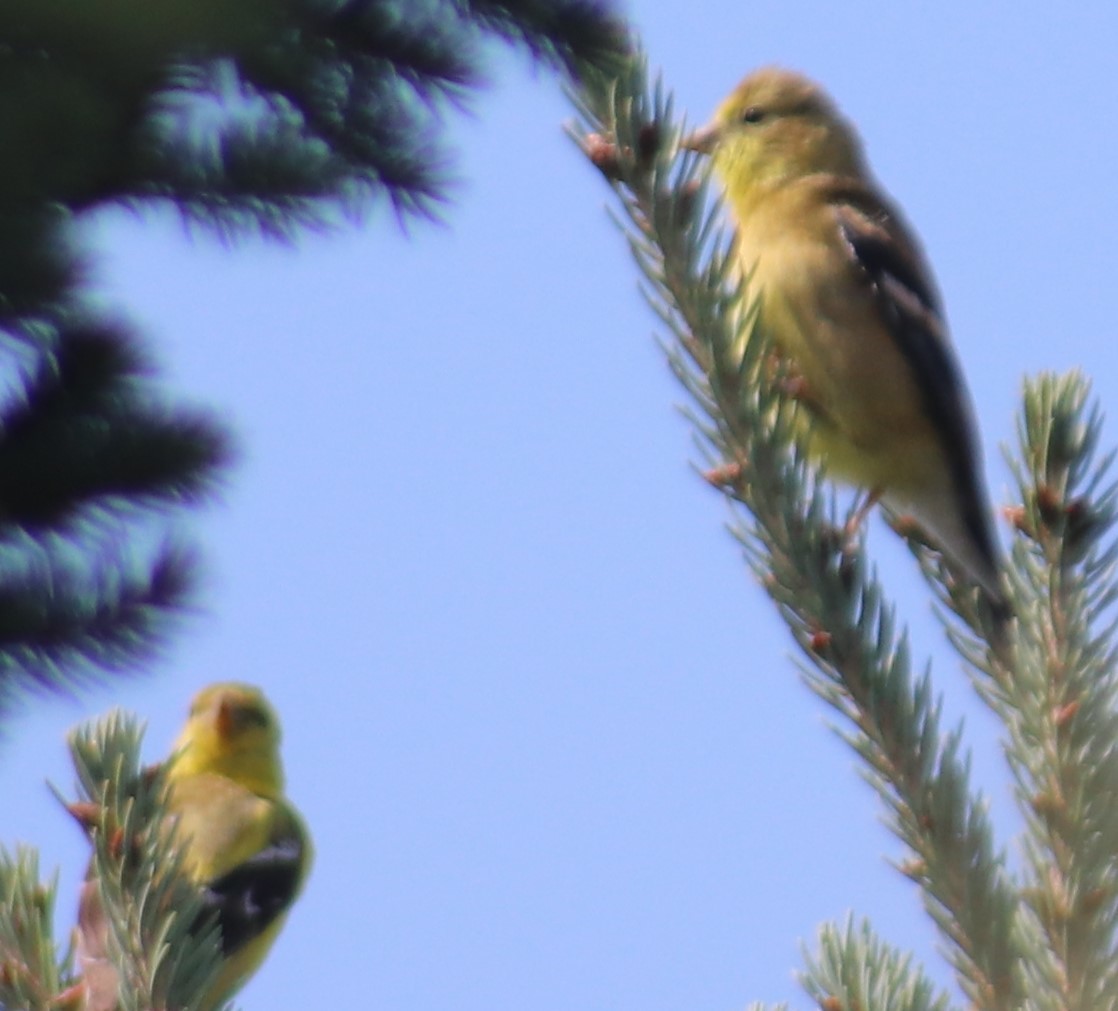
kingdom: Animalia
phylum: Chordata
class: Aves
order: Passeriformes
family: Fringillidae
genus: Spinus
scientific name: Spinus tristis
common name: American goldfinch
